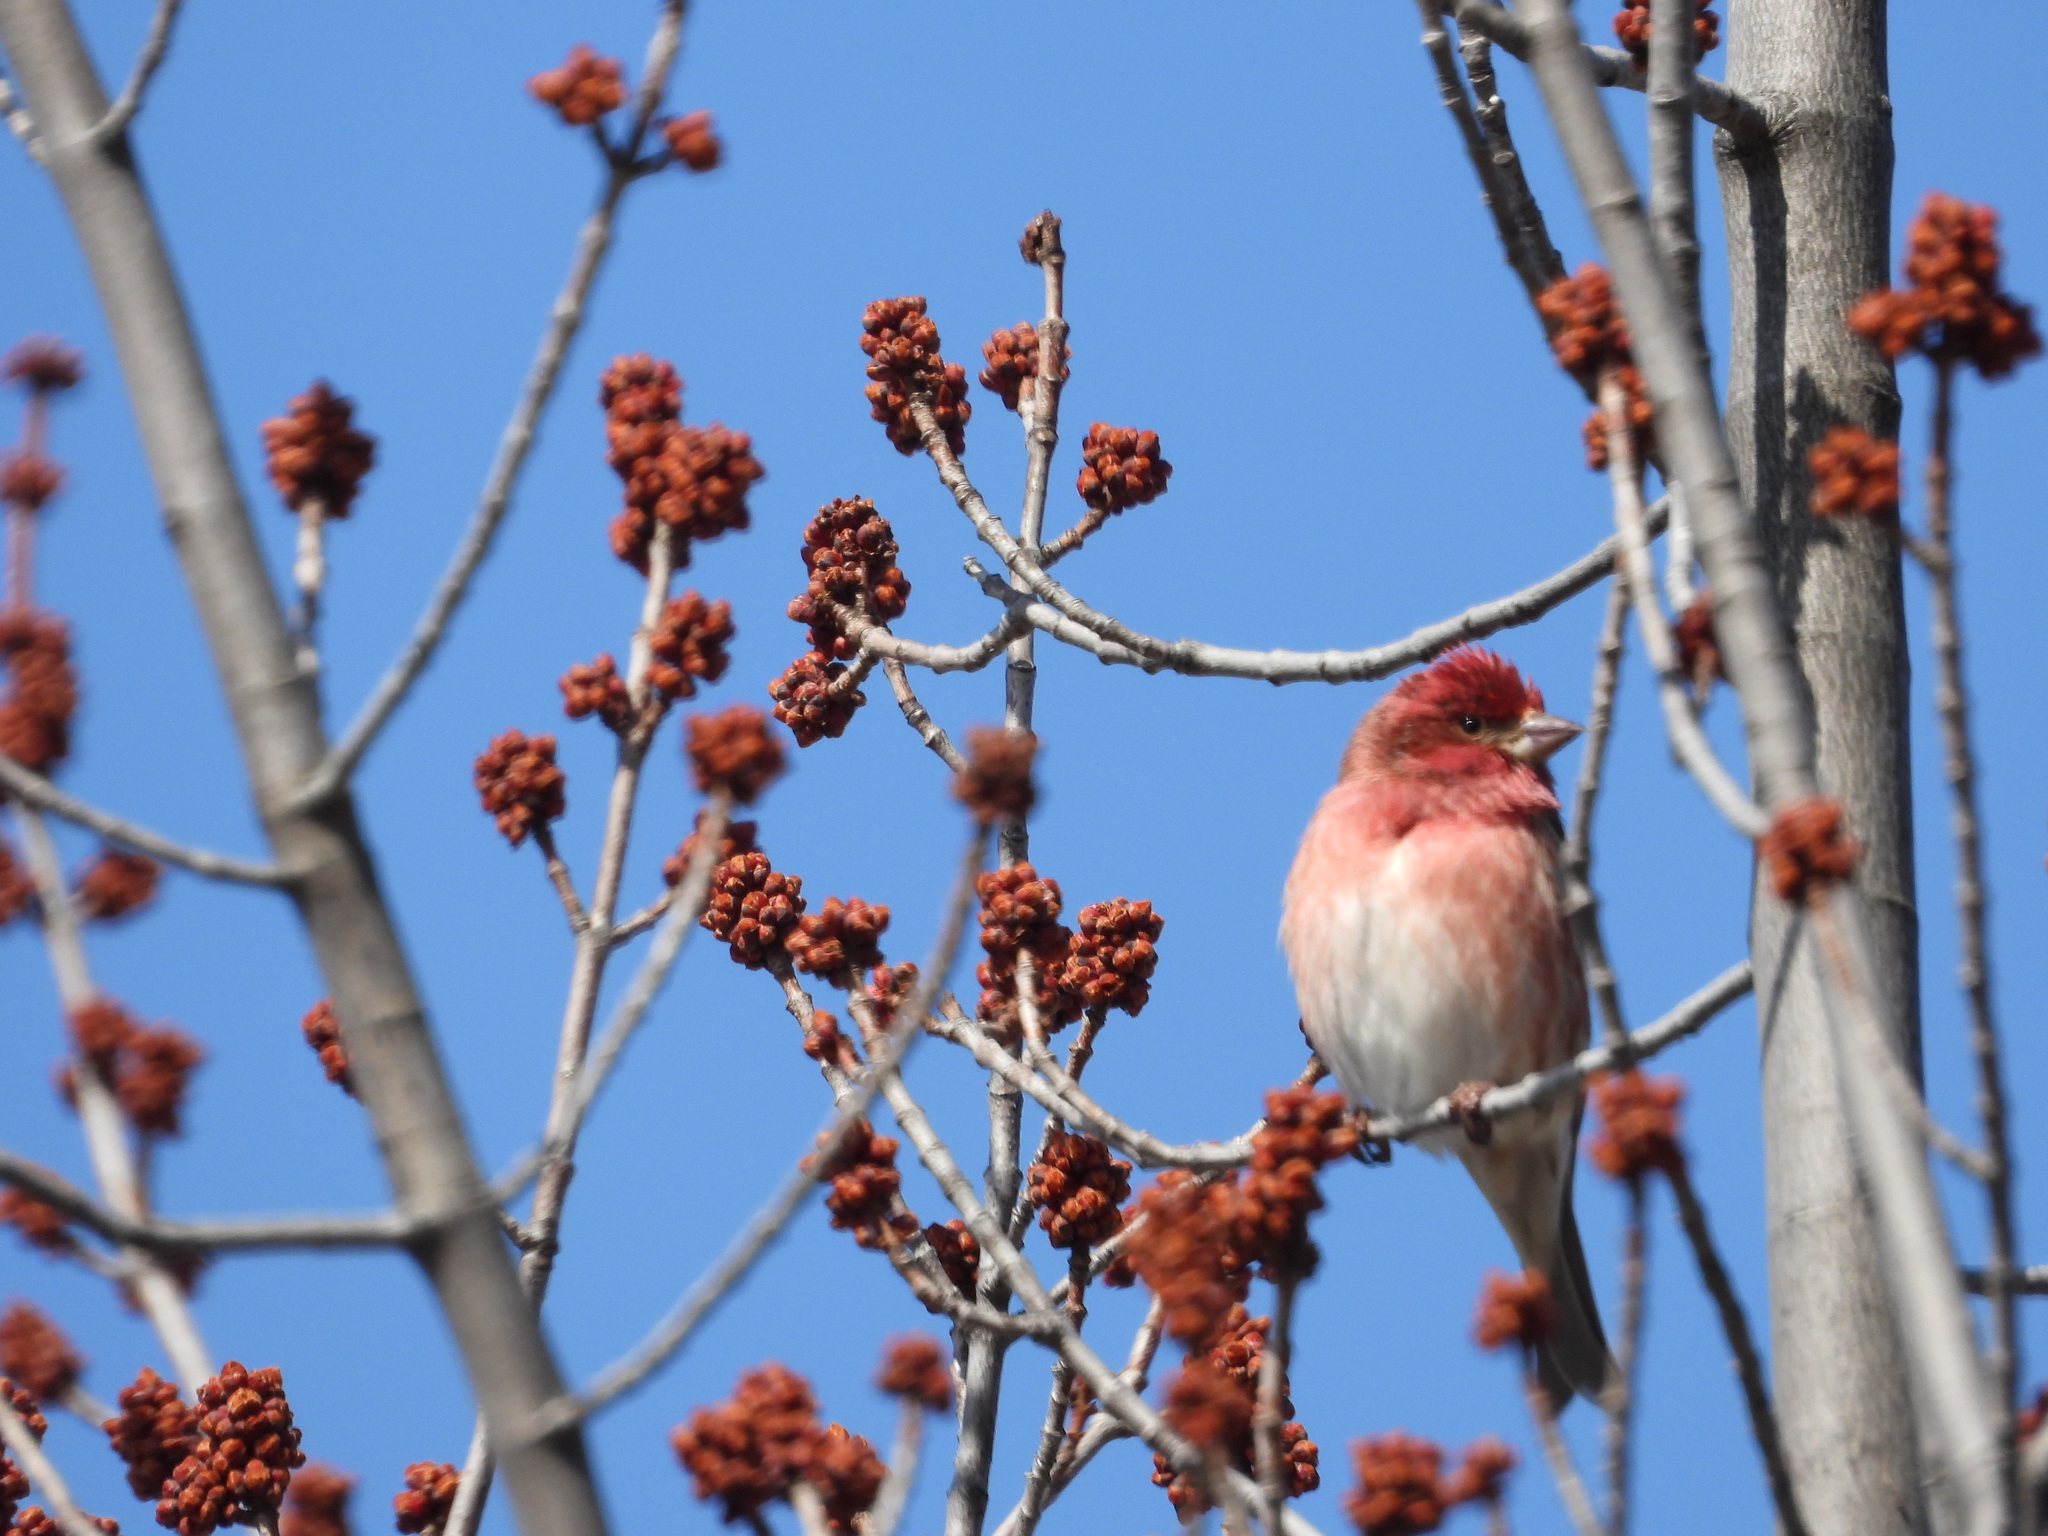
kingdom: Animalia
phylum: Chordata
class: Aves
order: Passeriformes
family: Fringillidae
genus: Haemorhous
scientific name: Haemorhous purpureus
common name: Purple finch
